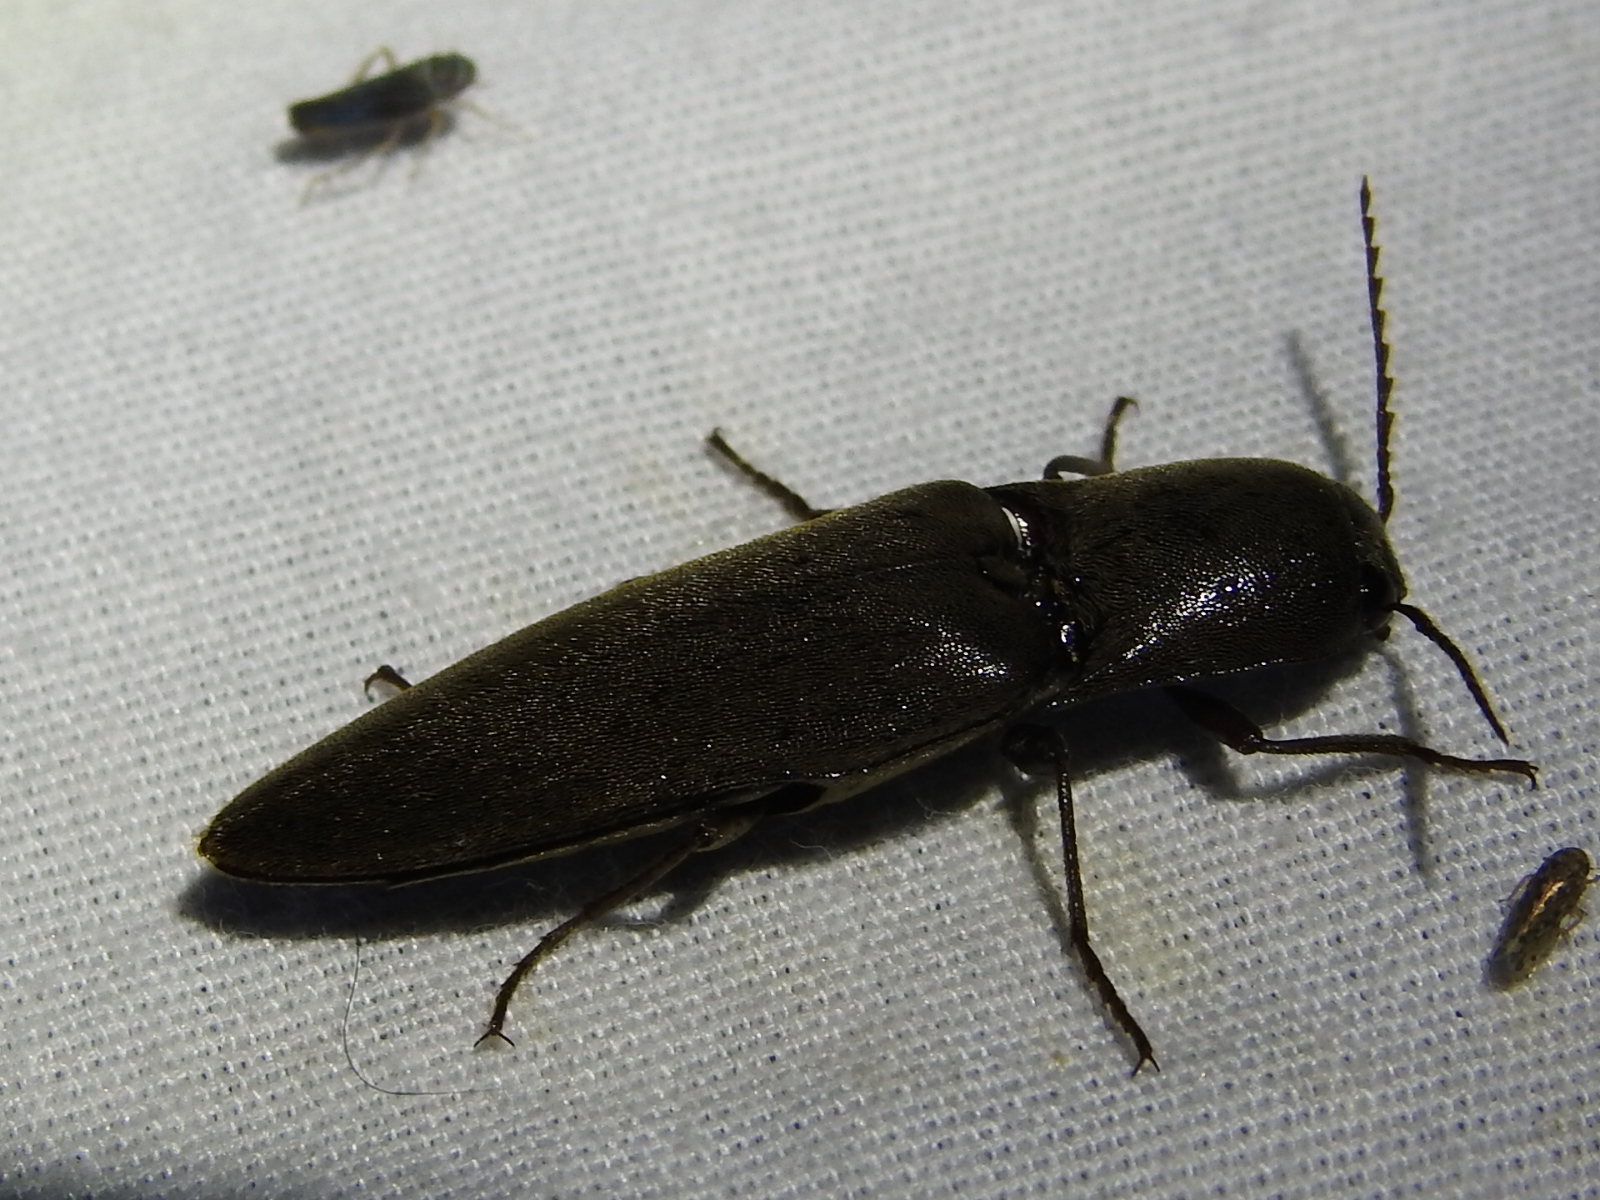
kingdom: Animalia
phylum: Arthropoda
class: Insecta
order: Coleoptera
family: Elateridae
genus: Orthostethus
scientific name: Orthostethus infuscatus
